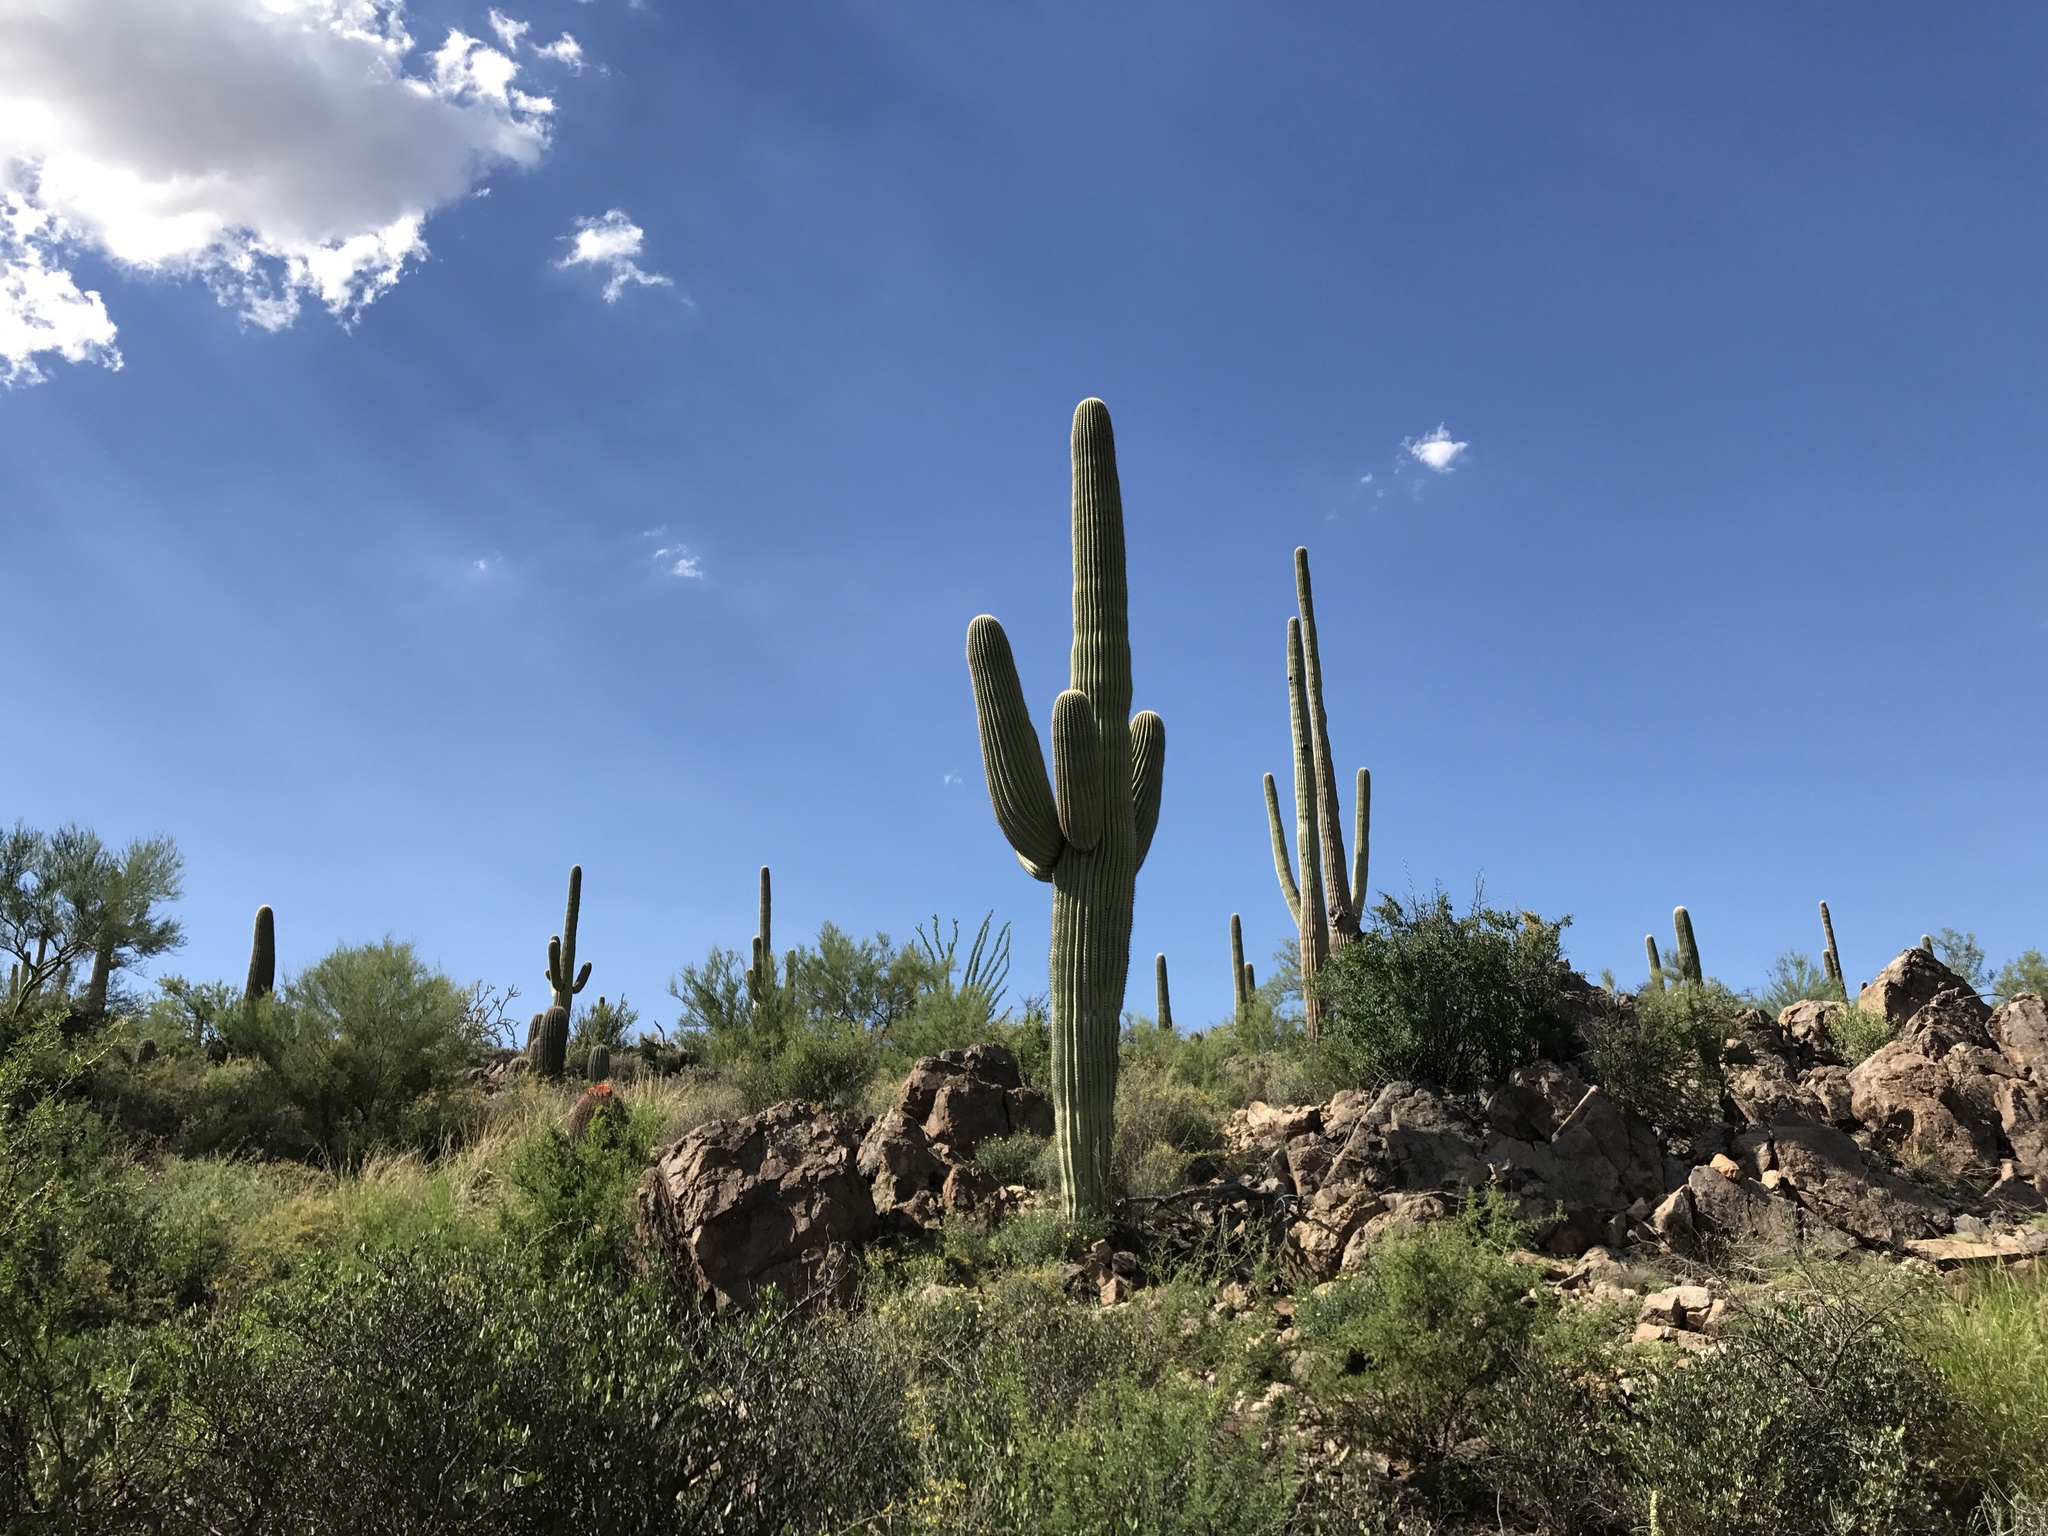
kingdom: Plantae
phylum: Tracheophyta
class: Magnoliopsida
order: Caryophyllales
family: Cactaceae
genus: Carnegiea
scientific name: Carnegiea gigantea
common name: Saguaro
